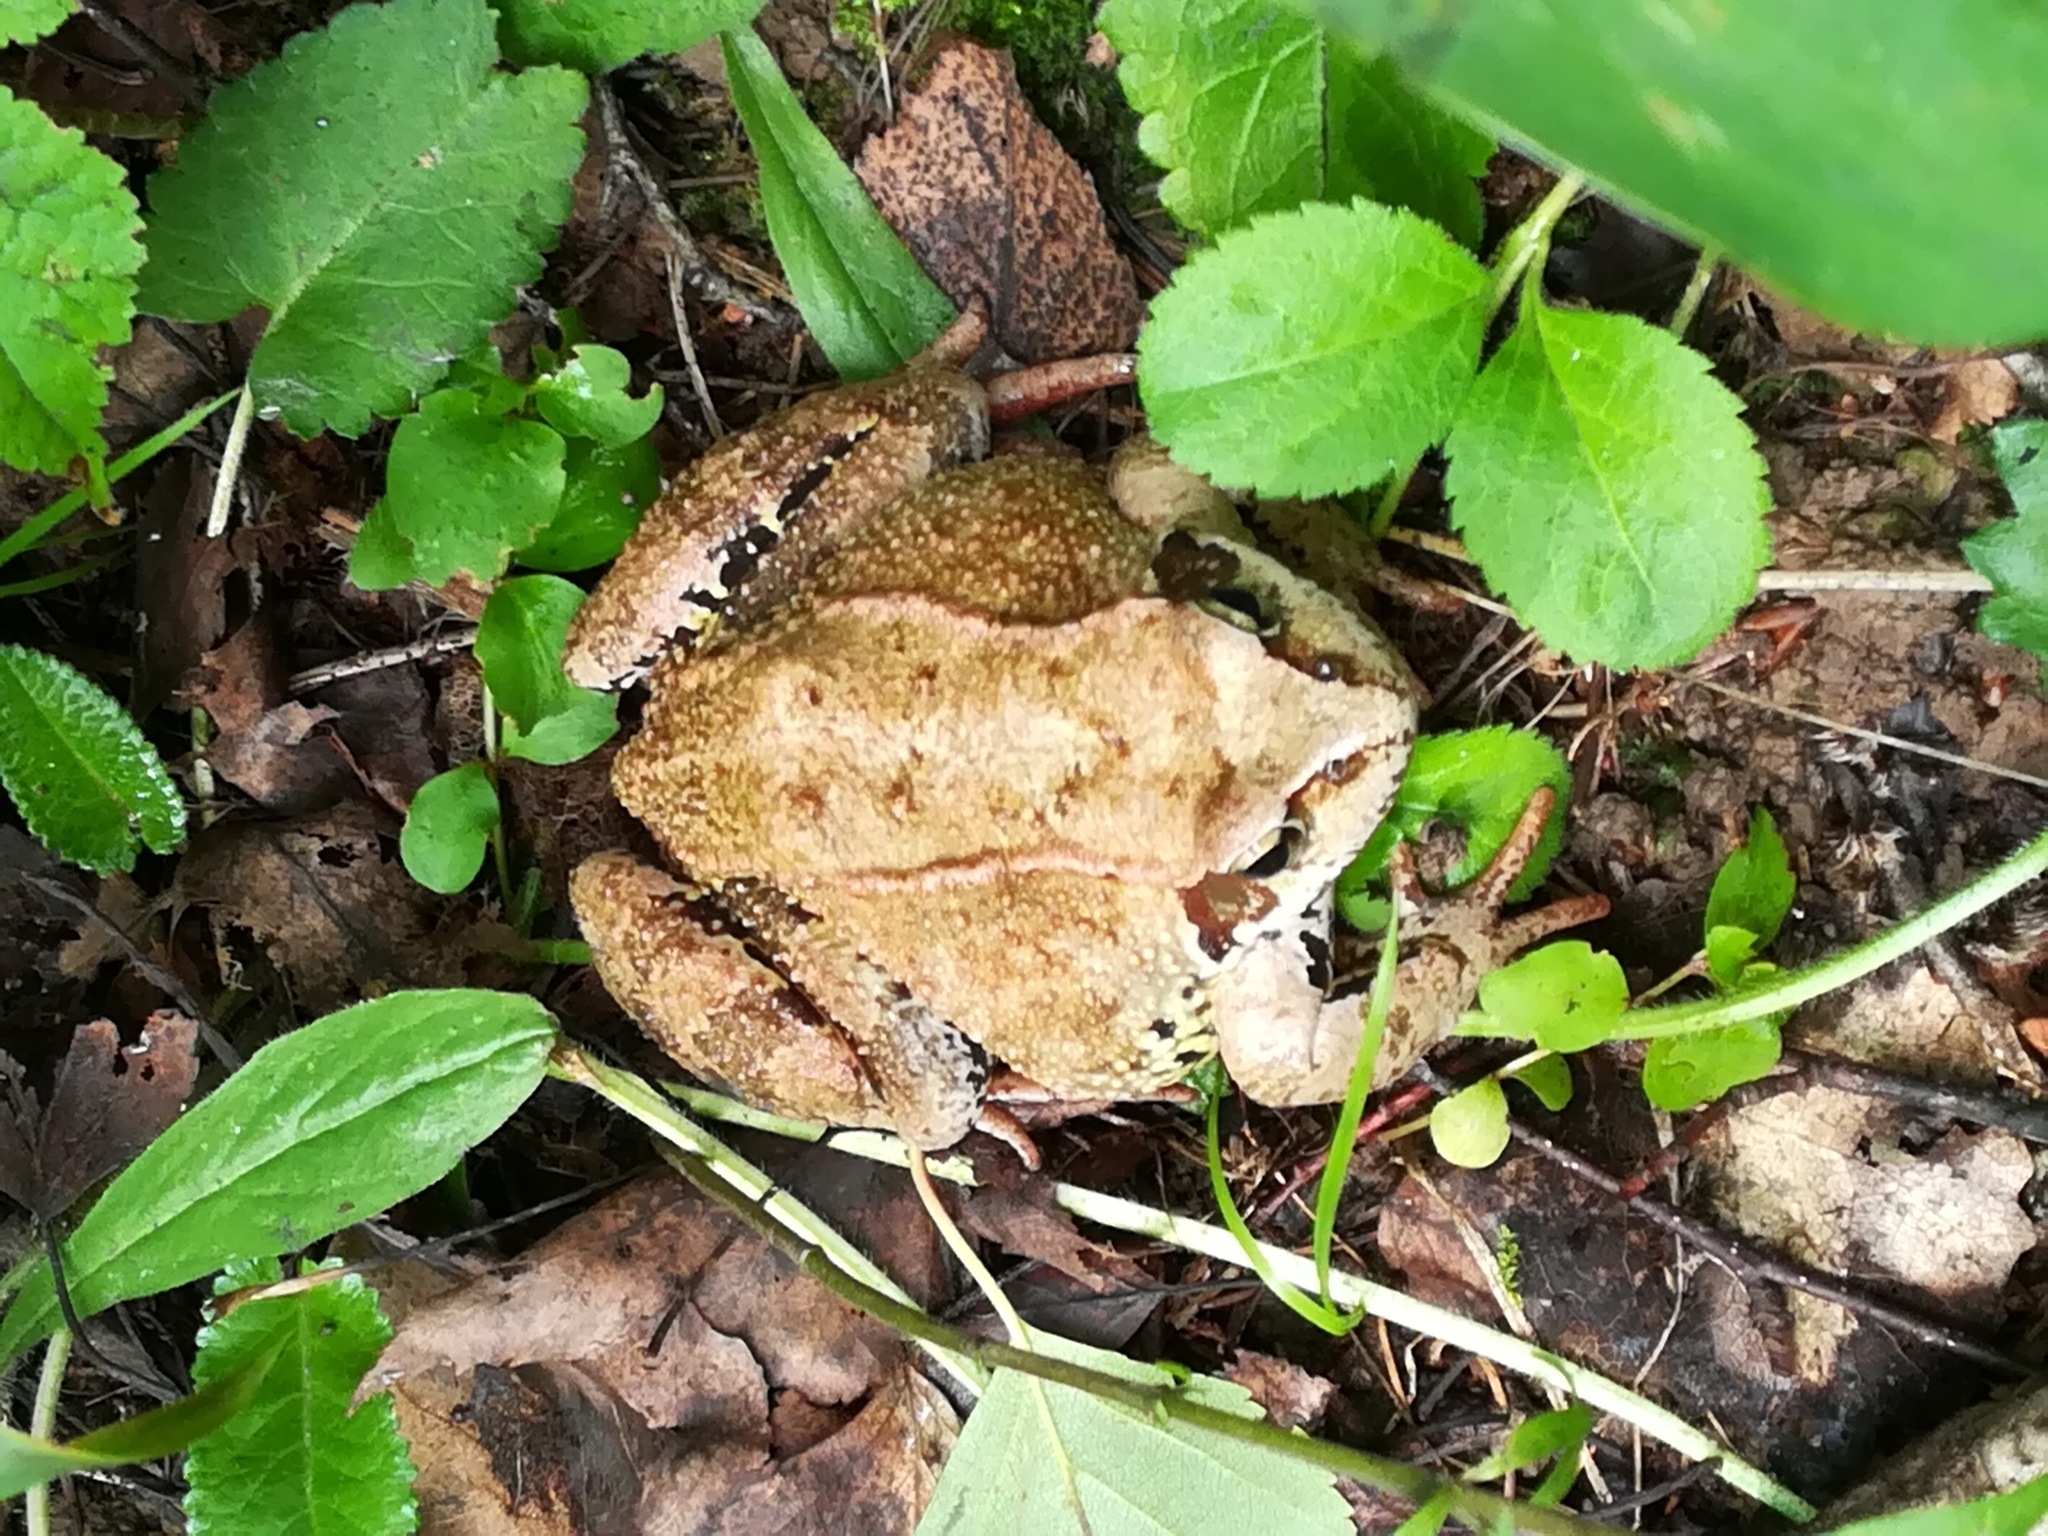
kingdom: Animalia
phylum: Chordata
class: Amphibia
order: Anura
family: Ranidae
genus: Rana
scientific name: Rana temporaria
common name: Common frog
